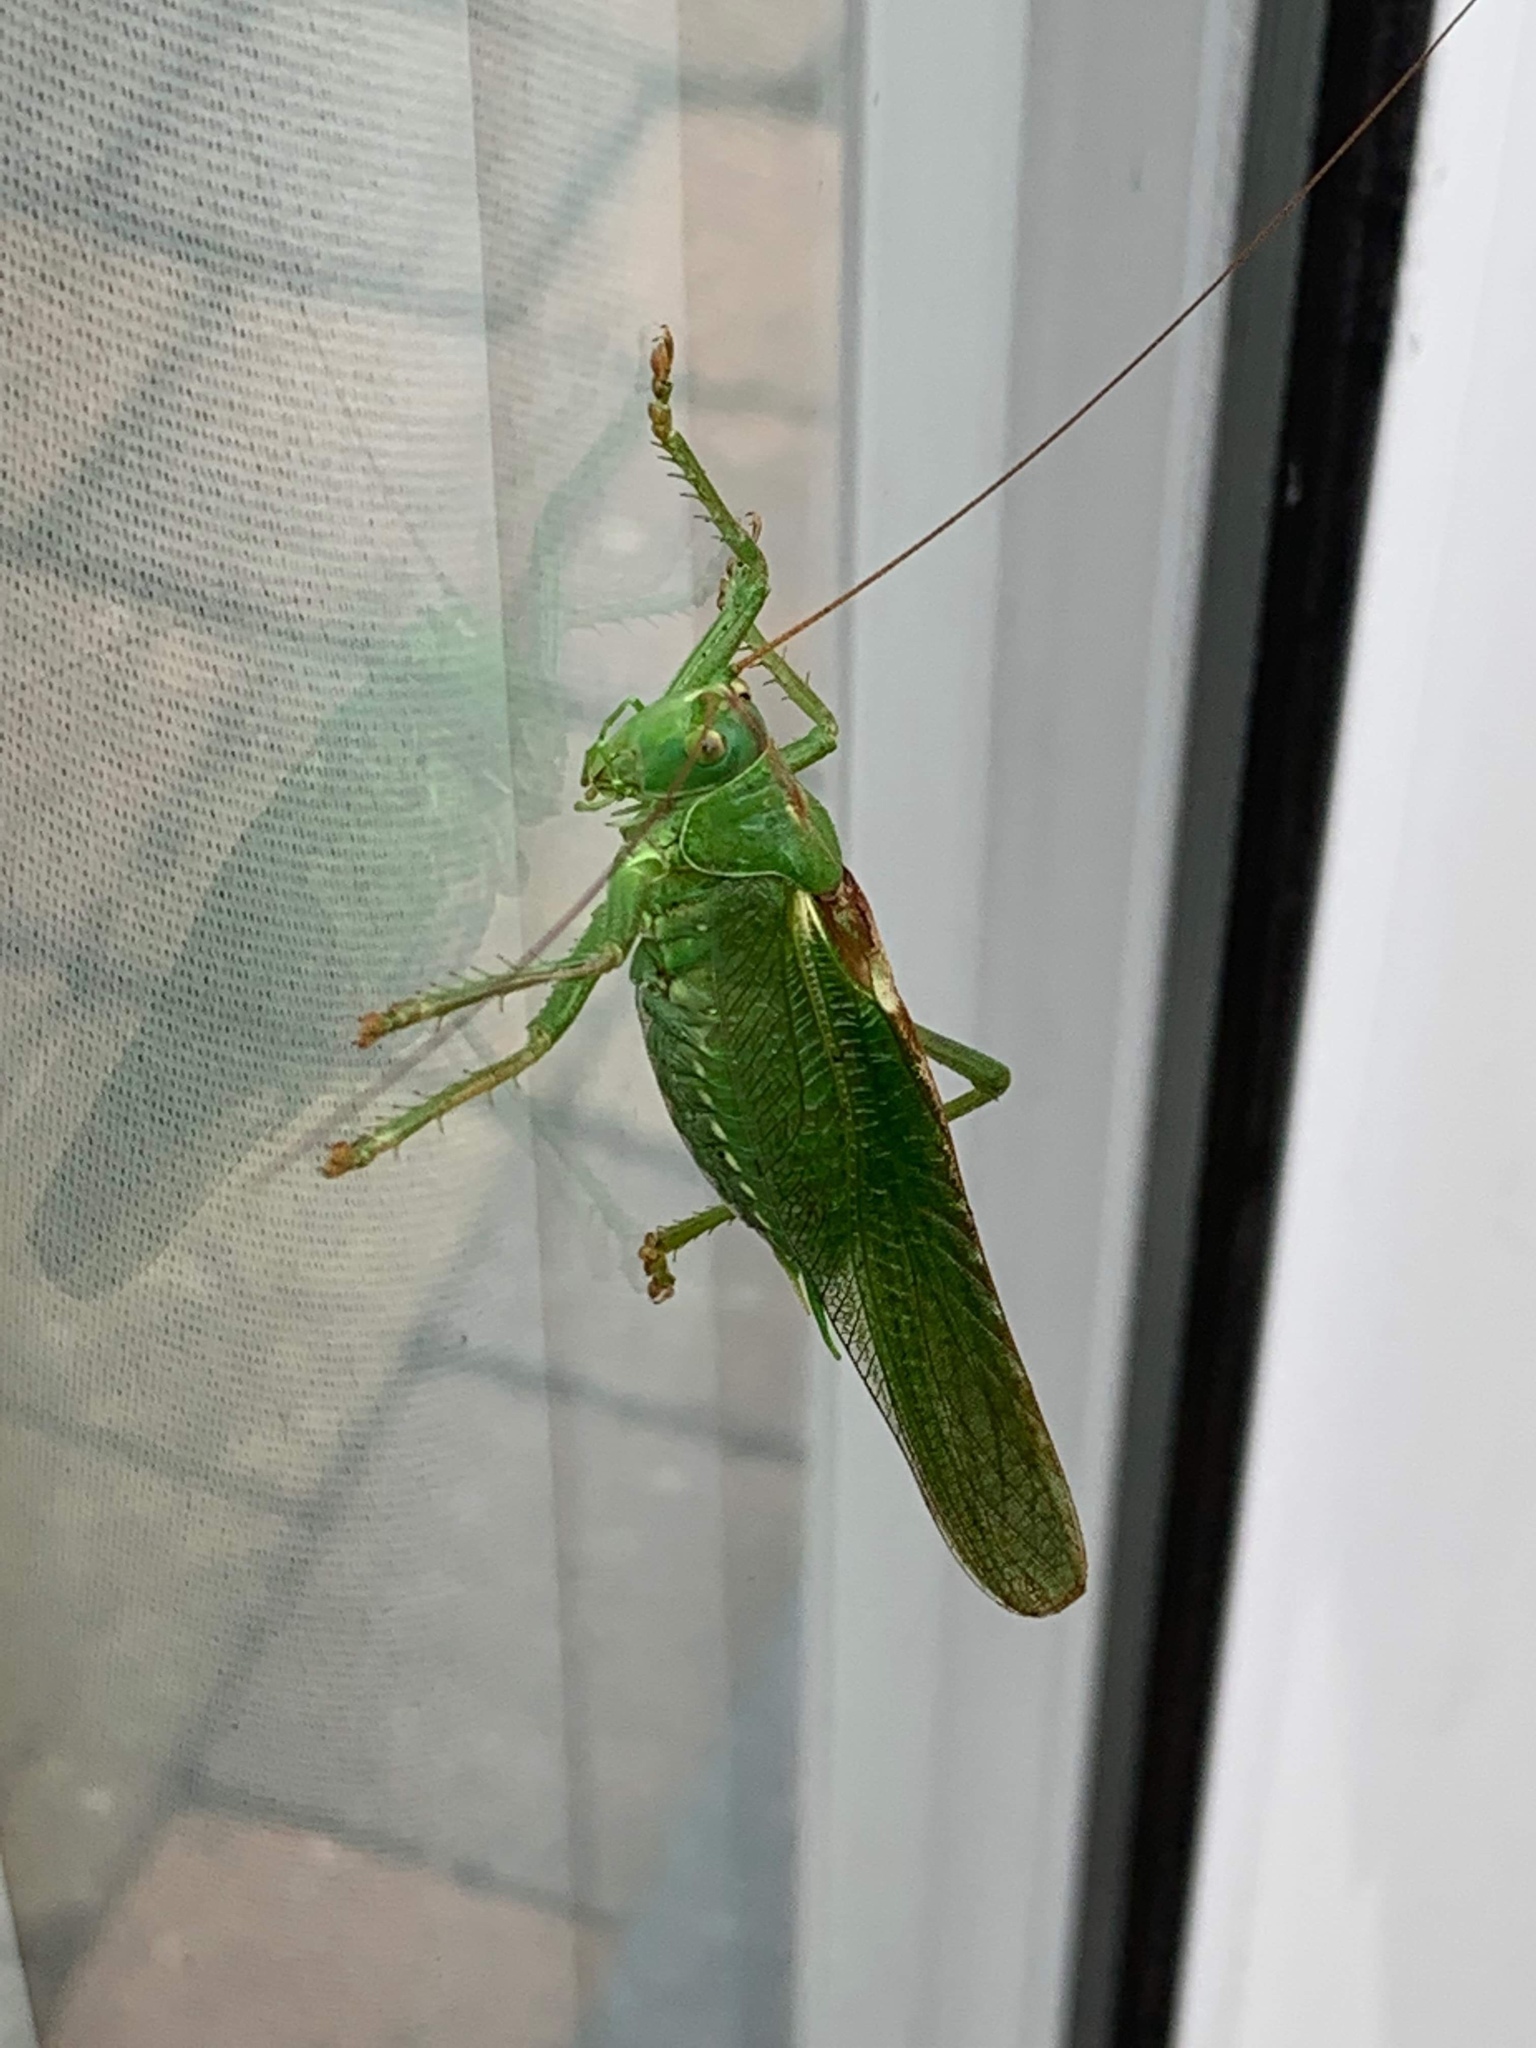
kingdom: Animalia
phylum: Arthropoda
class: Insecta
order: Orthoptera
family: Tettigoniidae
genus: Tettigonia
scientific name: Tettigonia viridissima
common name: Great green bush-cricket
